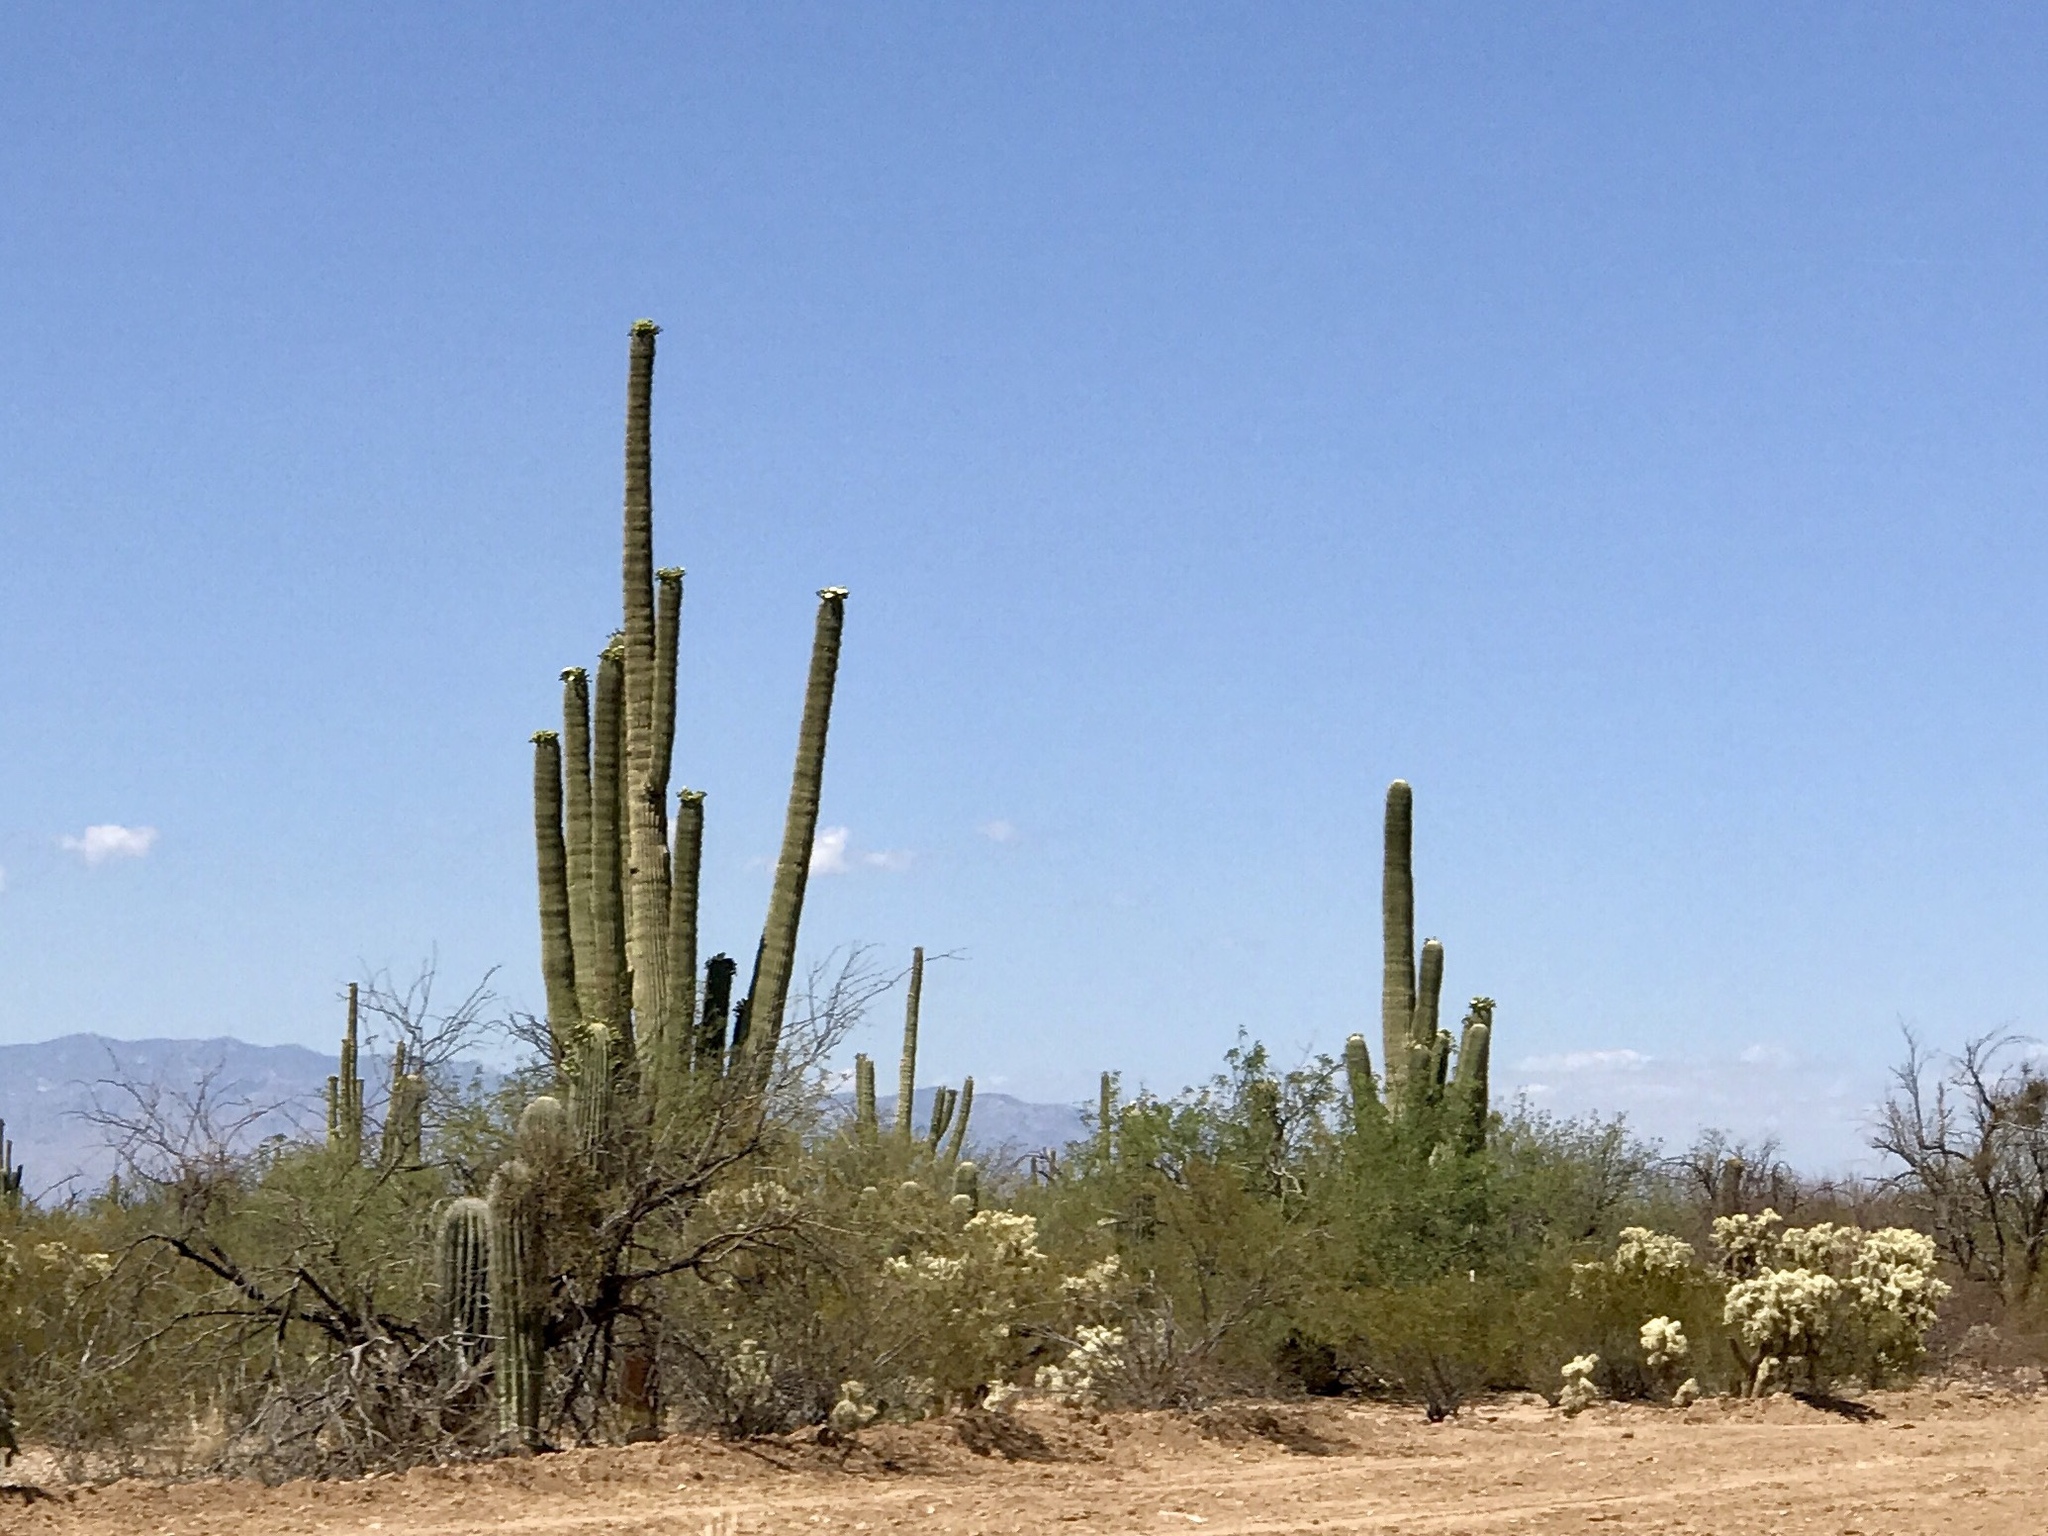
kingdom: Plantae
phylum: Tracheophyta
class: Magnoliopsida
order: Caryophyllales
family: Cactaceae
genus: Carnegiea
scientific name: Carnegiea gigantea
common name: Saguaro
